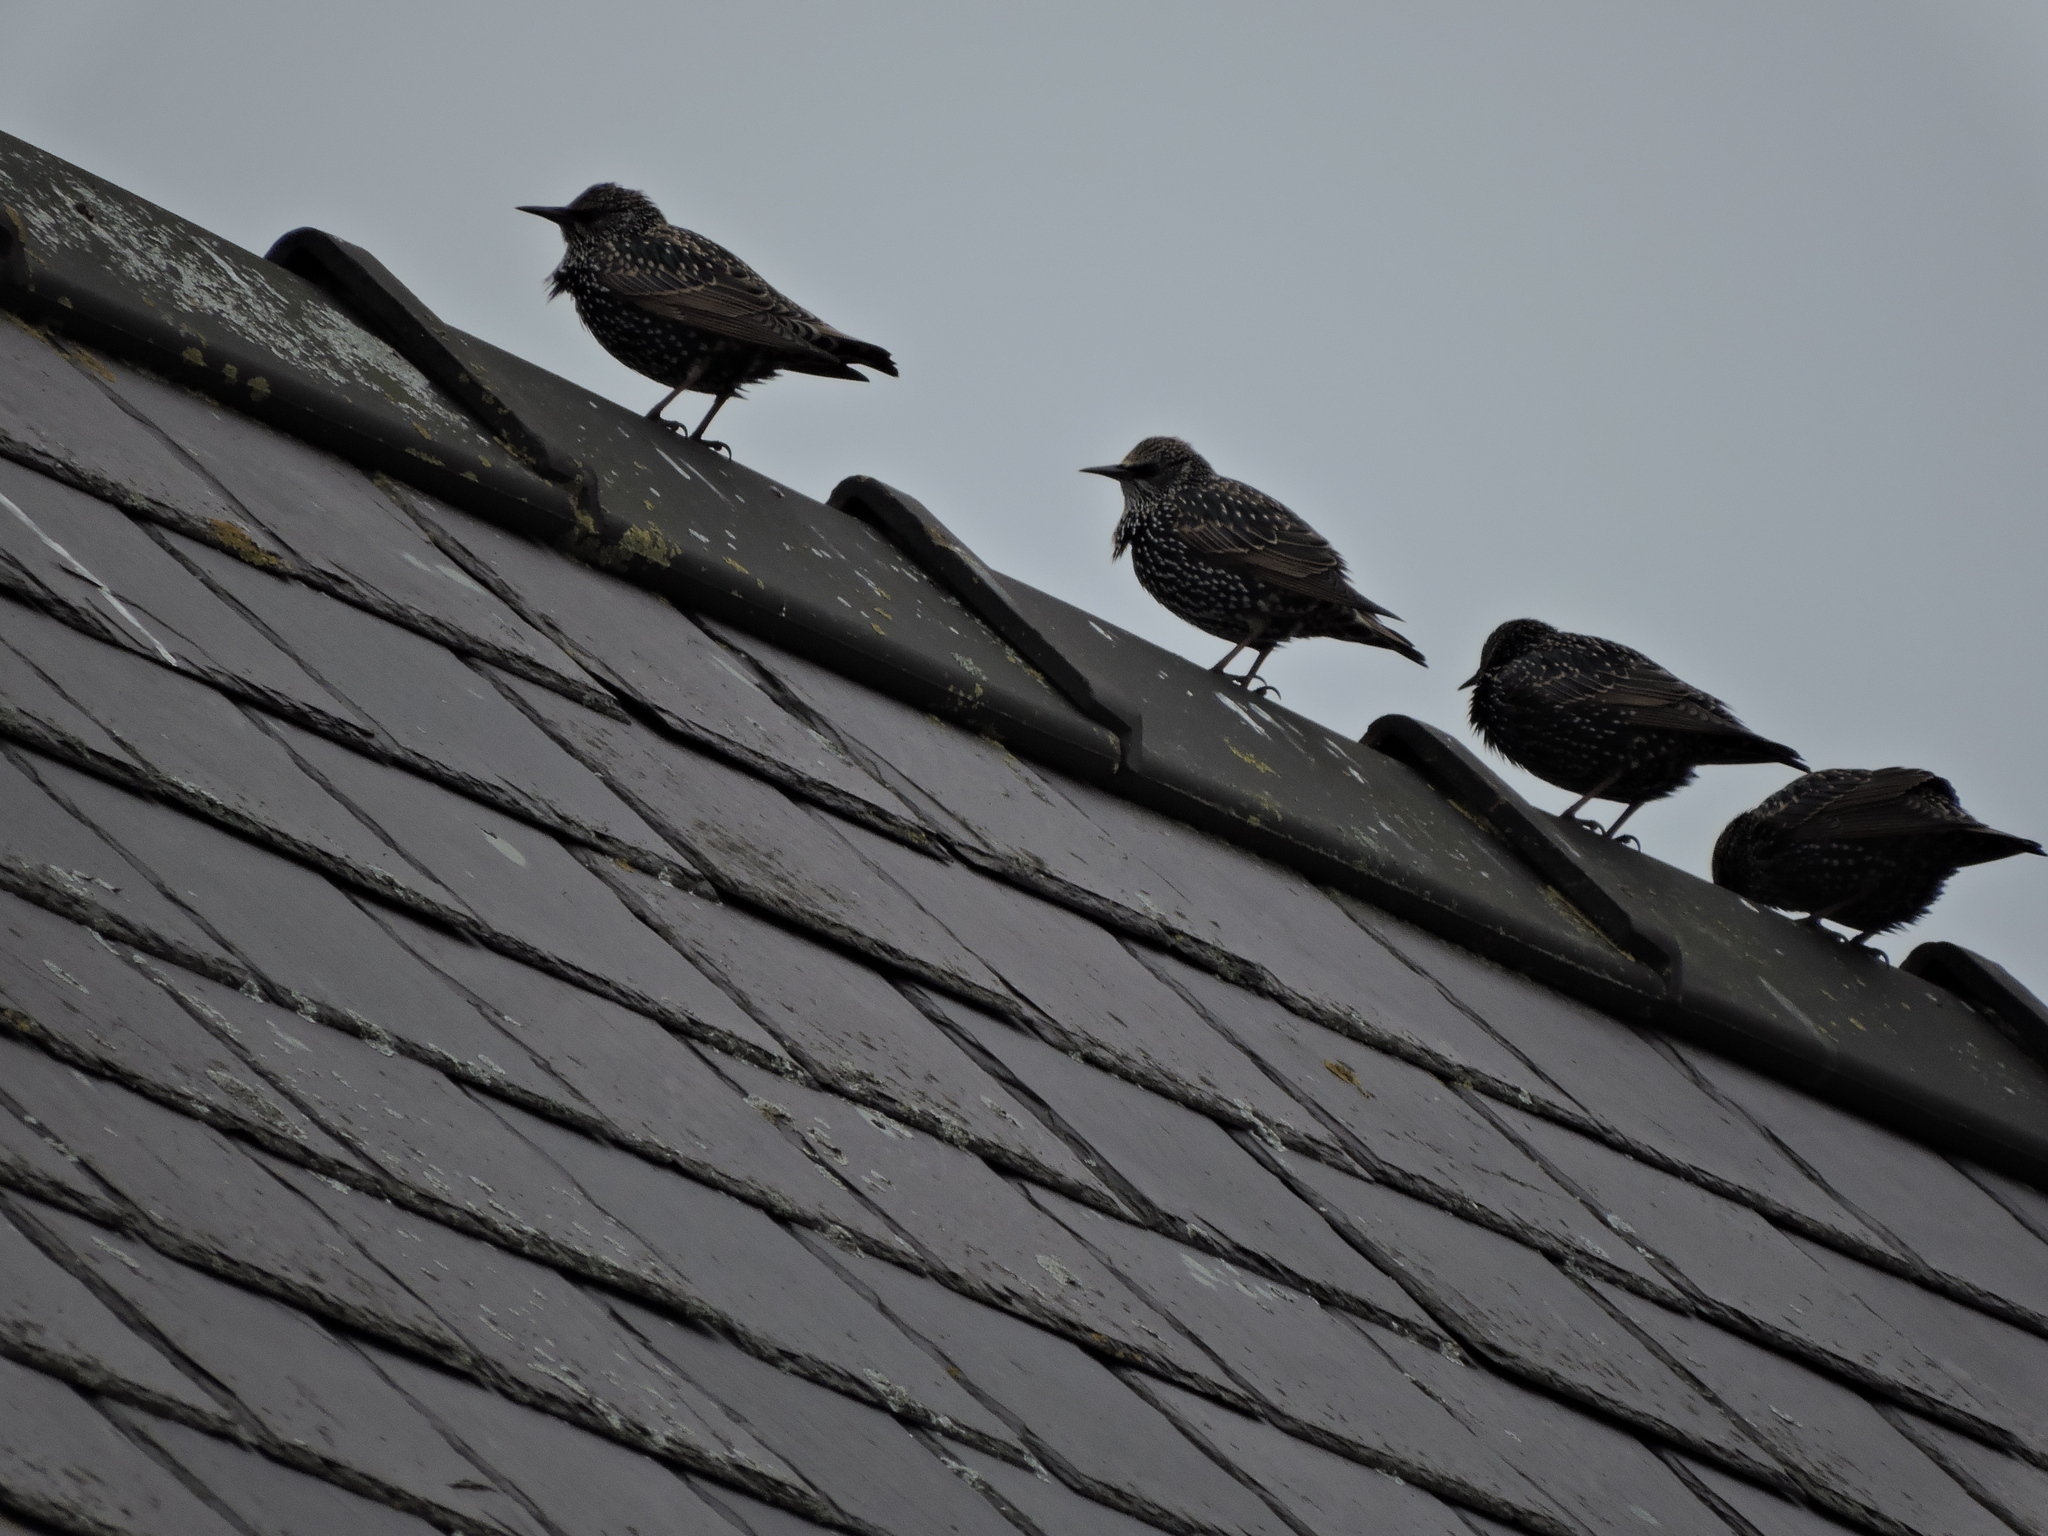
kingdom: Animalia
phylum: Chordata
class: Aves
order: Passeriformes
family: Sturnidae
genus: Sturnus
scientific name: Sturnus vulgaris
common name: Common starling
